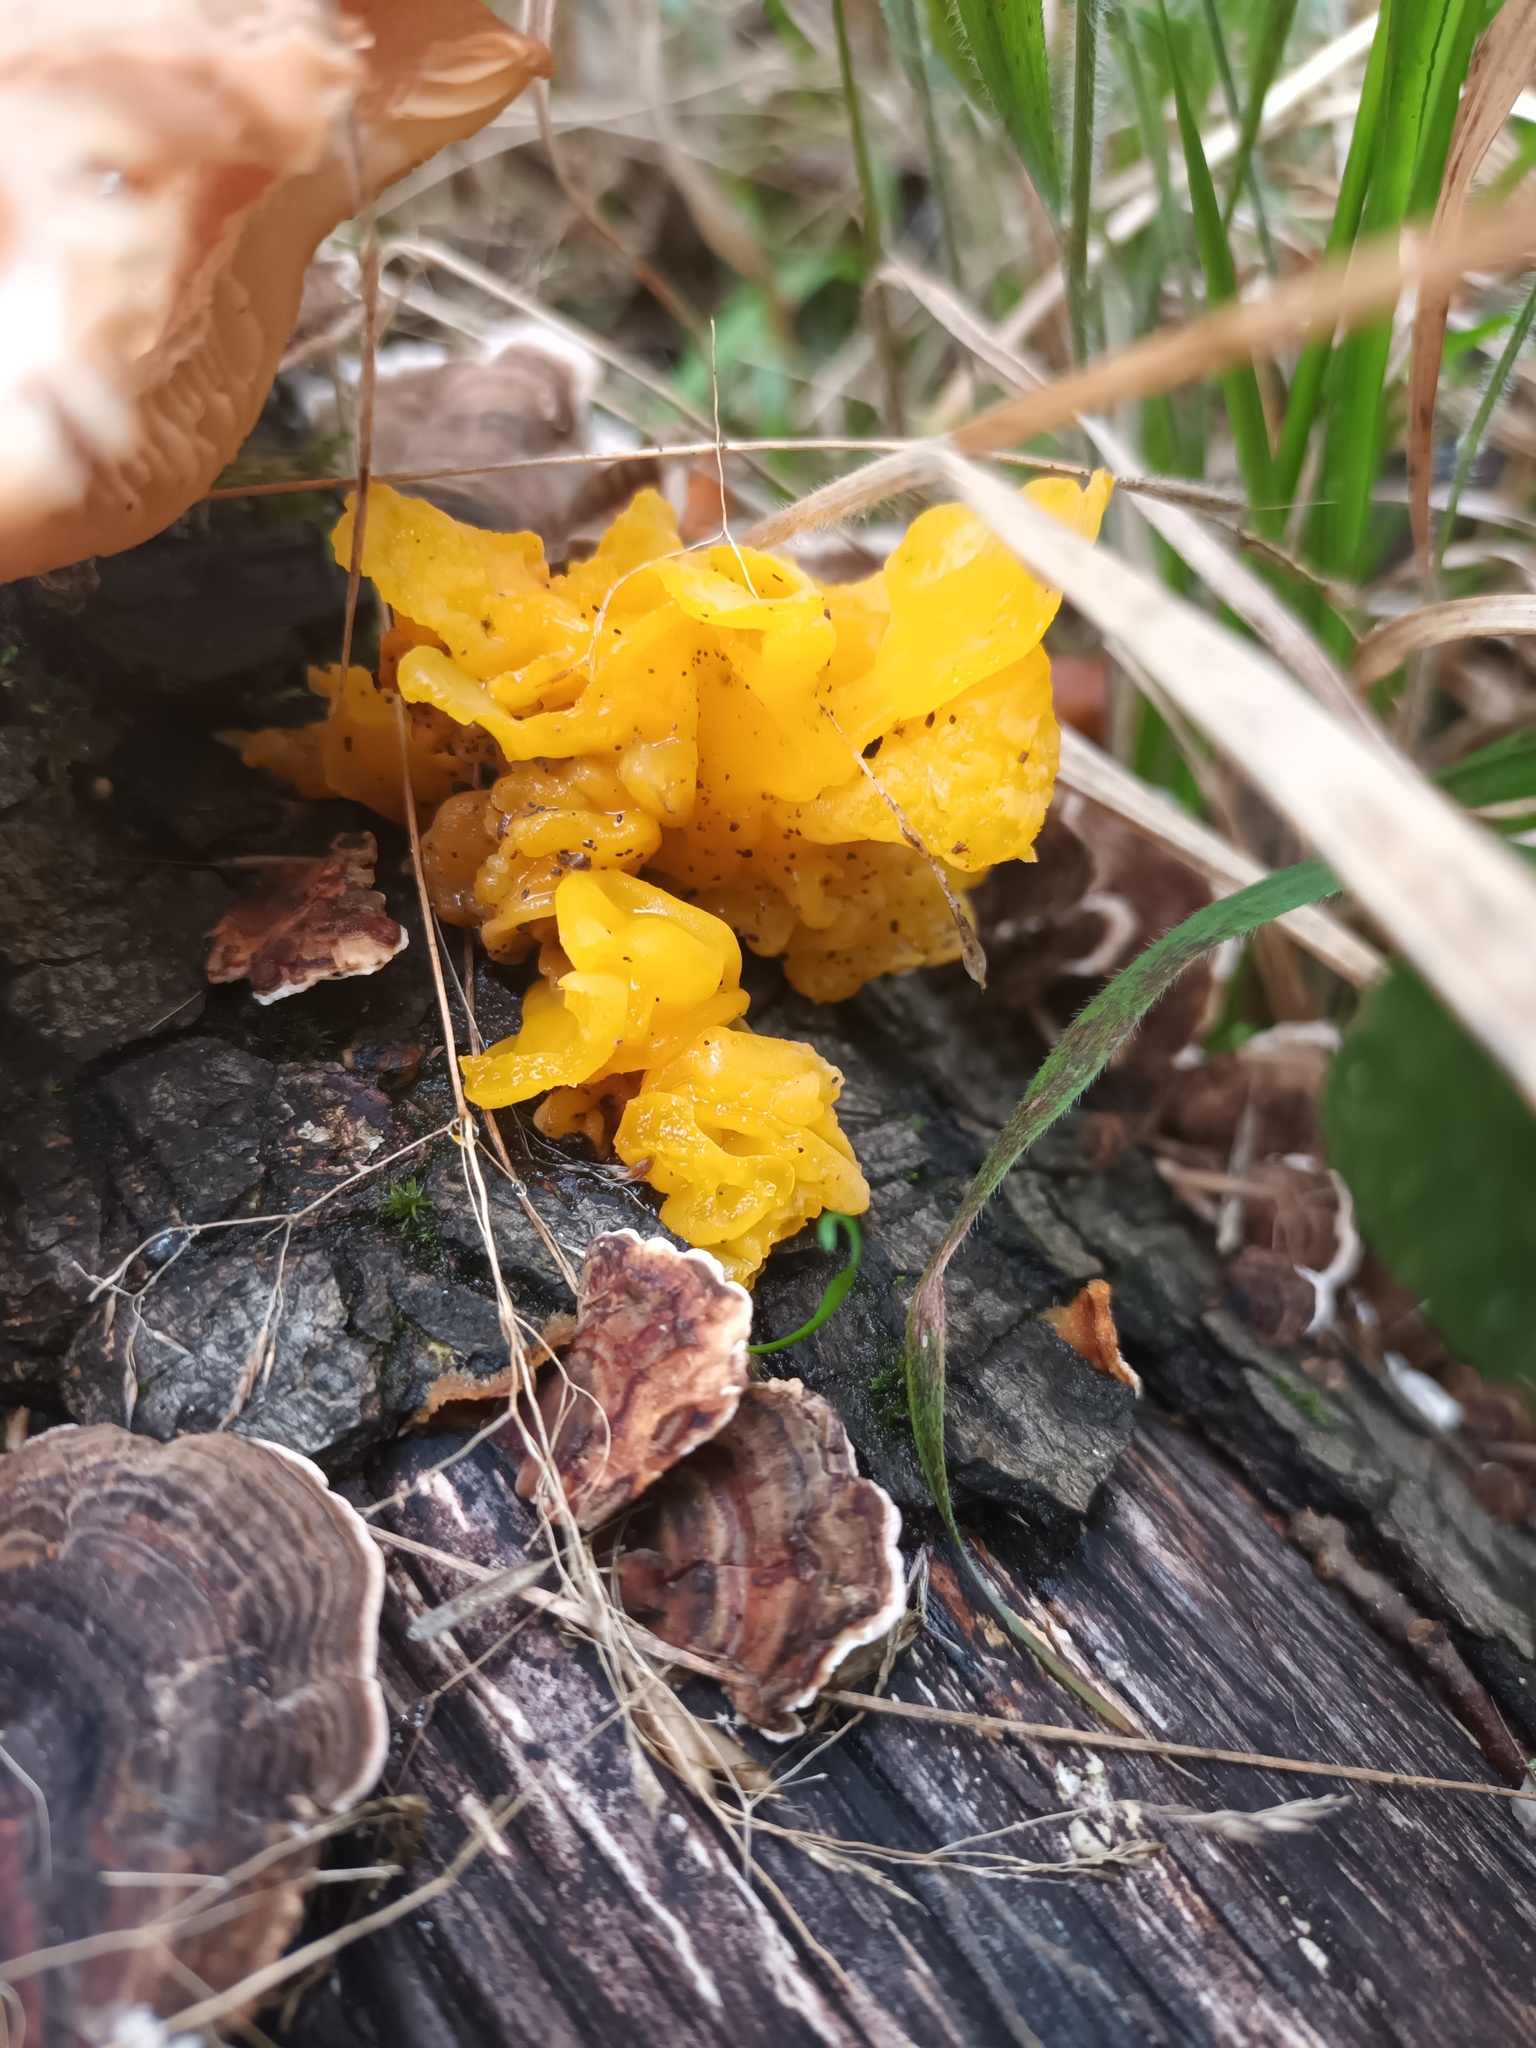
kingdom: Fungi
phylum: Basidiomycota
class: Tremellomycetes
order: Tremellales
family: Naemateliaceae
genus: Naematelia
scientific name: Naematelia aurantia
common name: Golden ear
